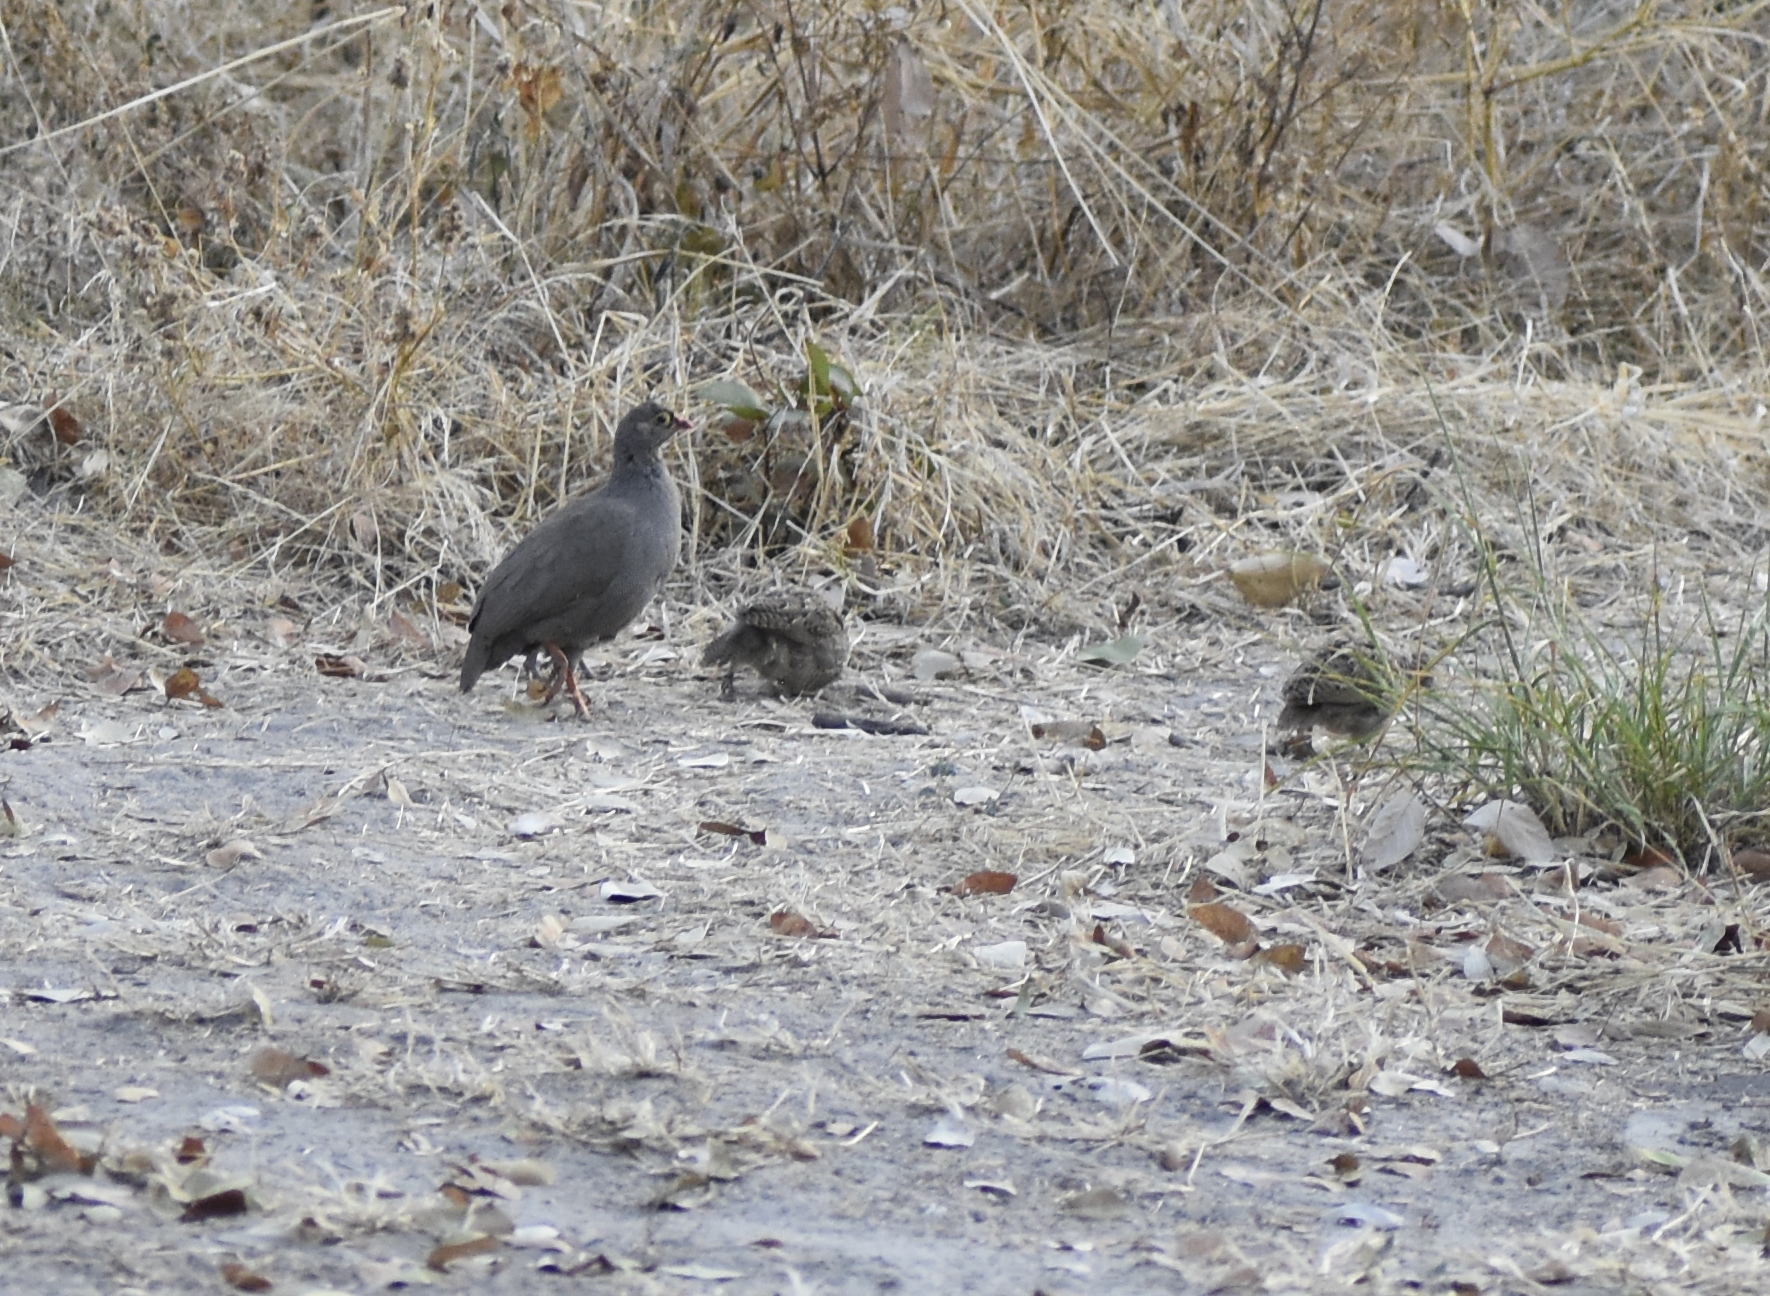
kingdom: Animalia
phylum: Chordata
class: Aves
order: Galliformes
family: Phasianidae
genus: Pternistis
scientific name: Pternistis adspersus
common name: Red-billed spurfowl
